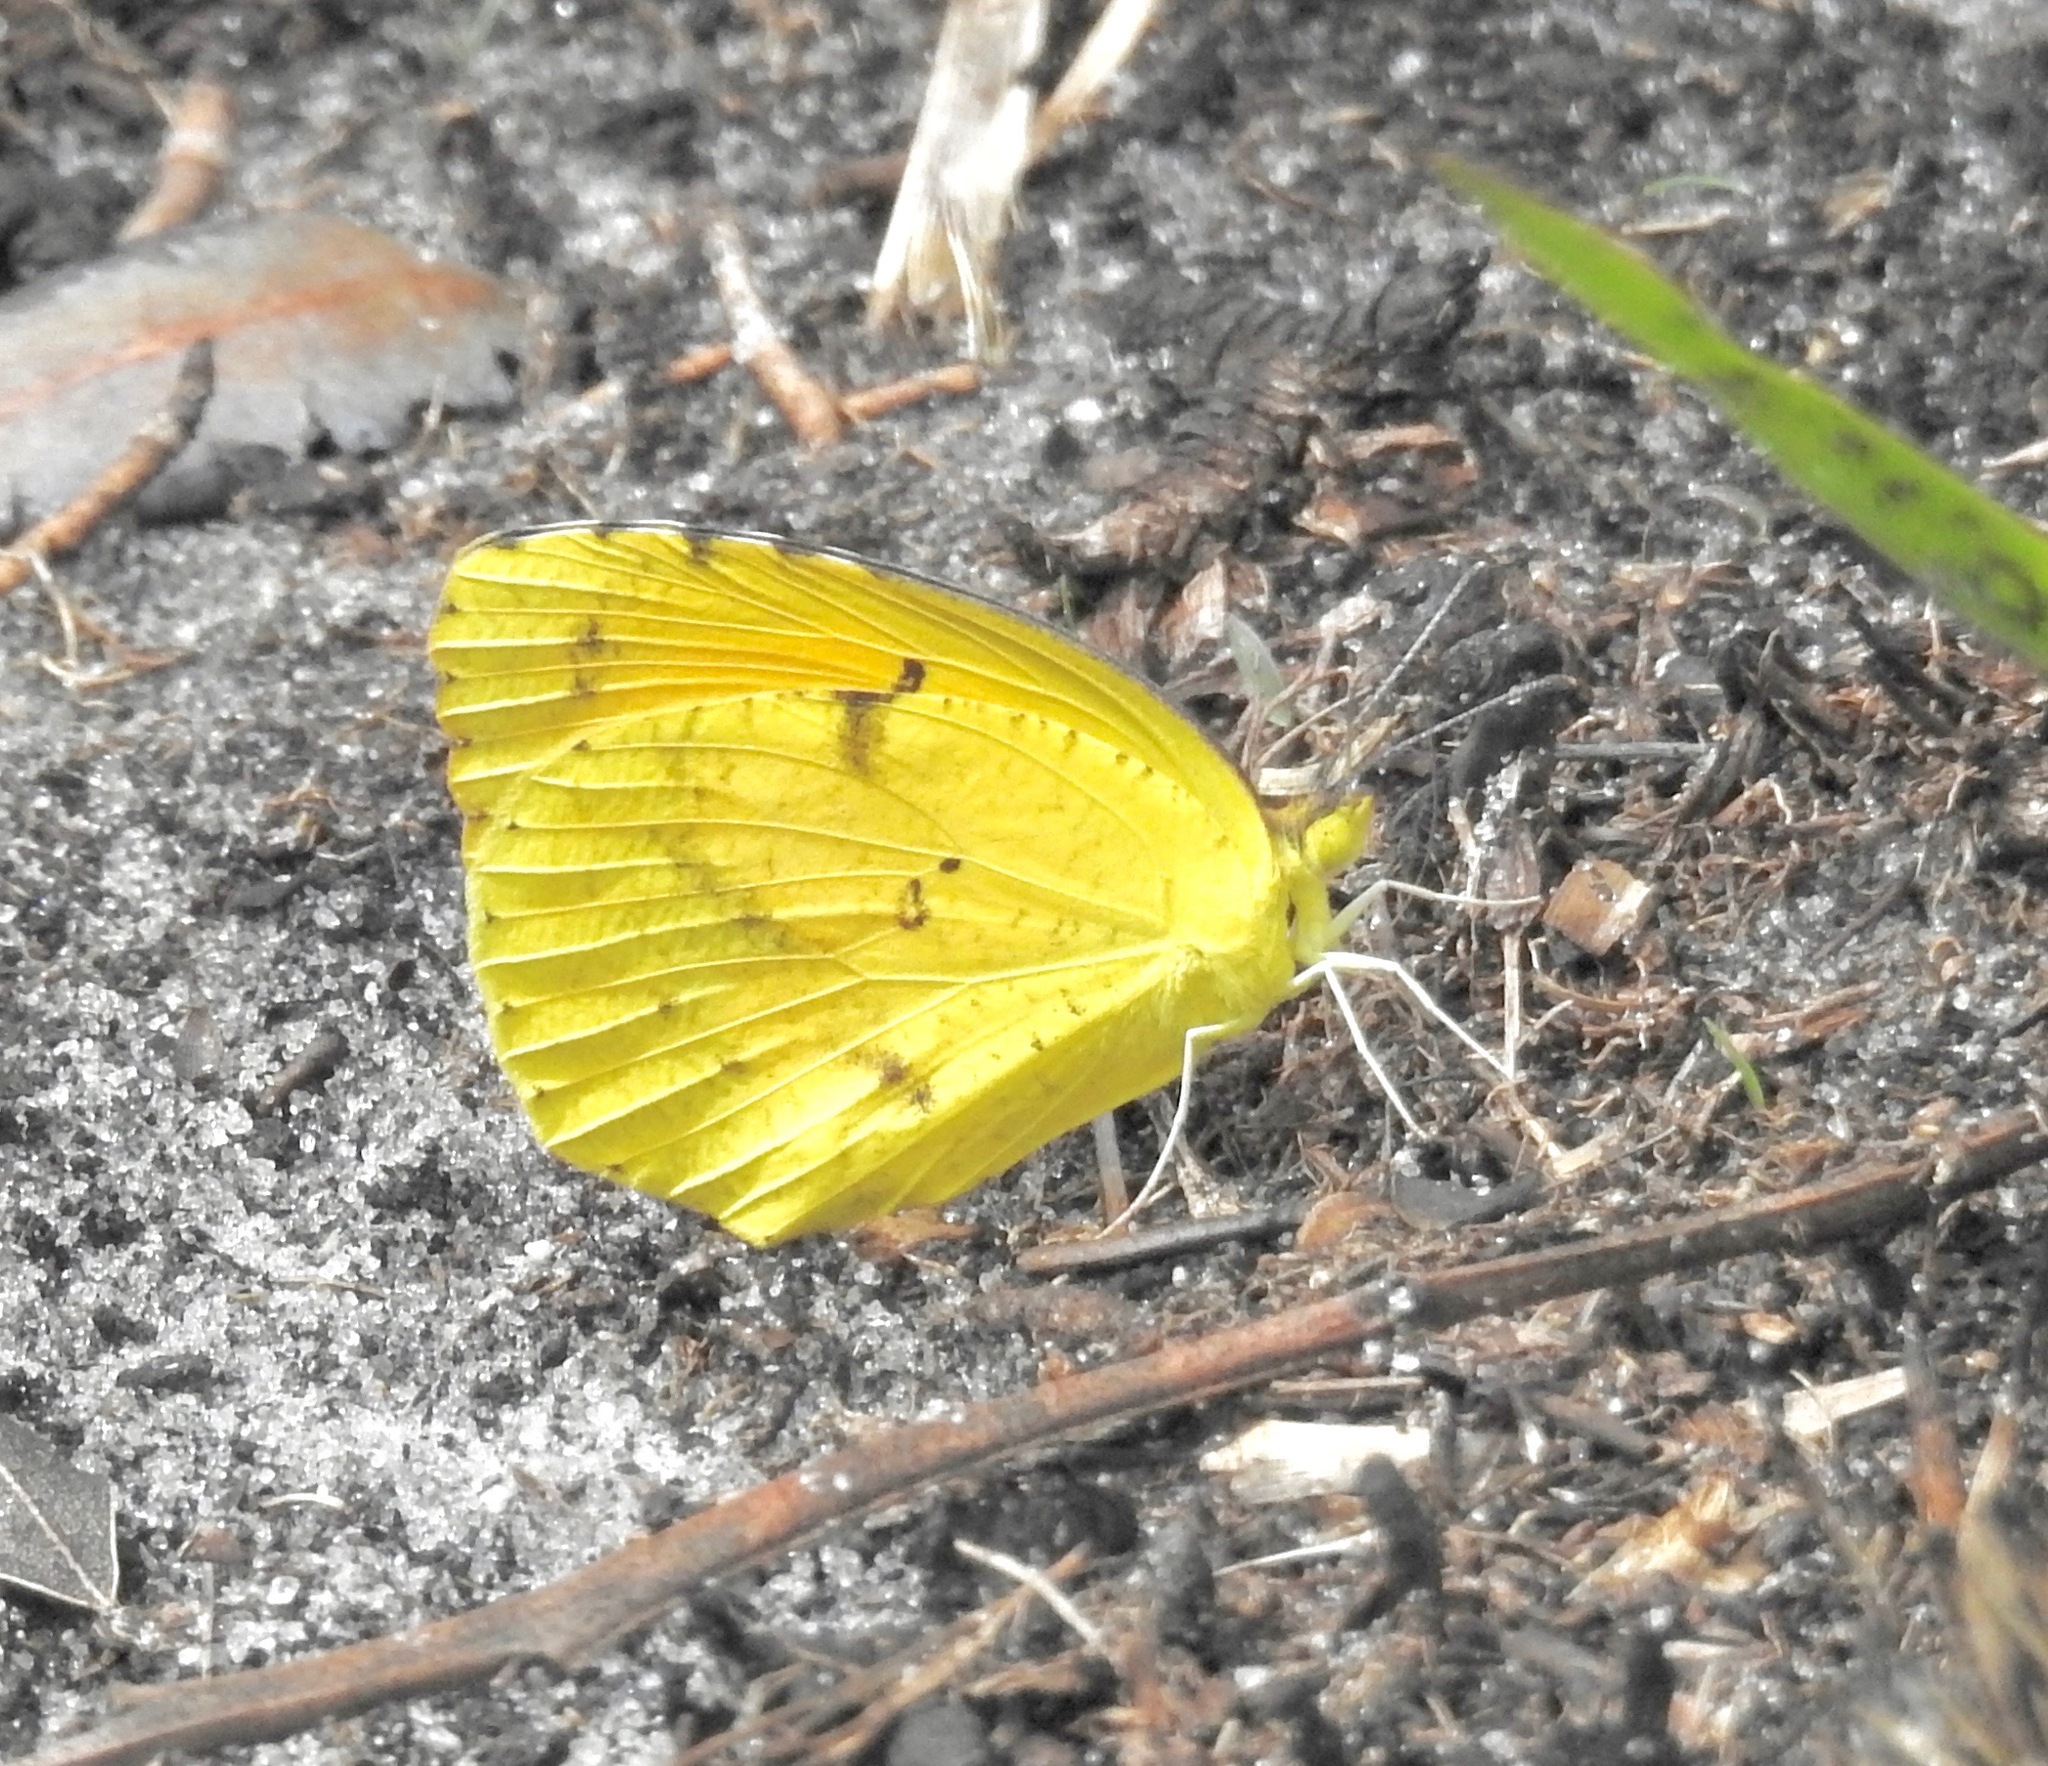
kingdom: Animalia
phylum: Arthropoda
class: Insecta
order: Lepidoptera
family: Pieridae
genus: Abaeis
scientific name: Abaeis nicippe
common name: Sleepy orange
